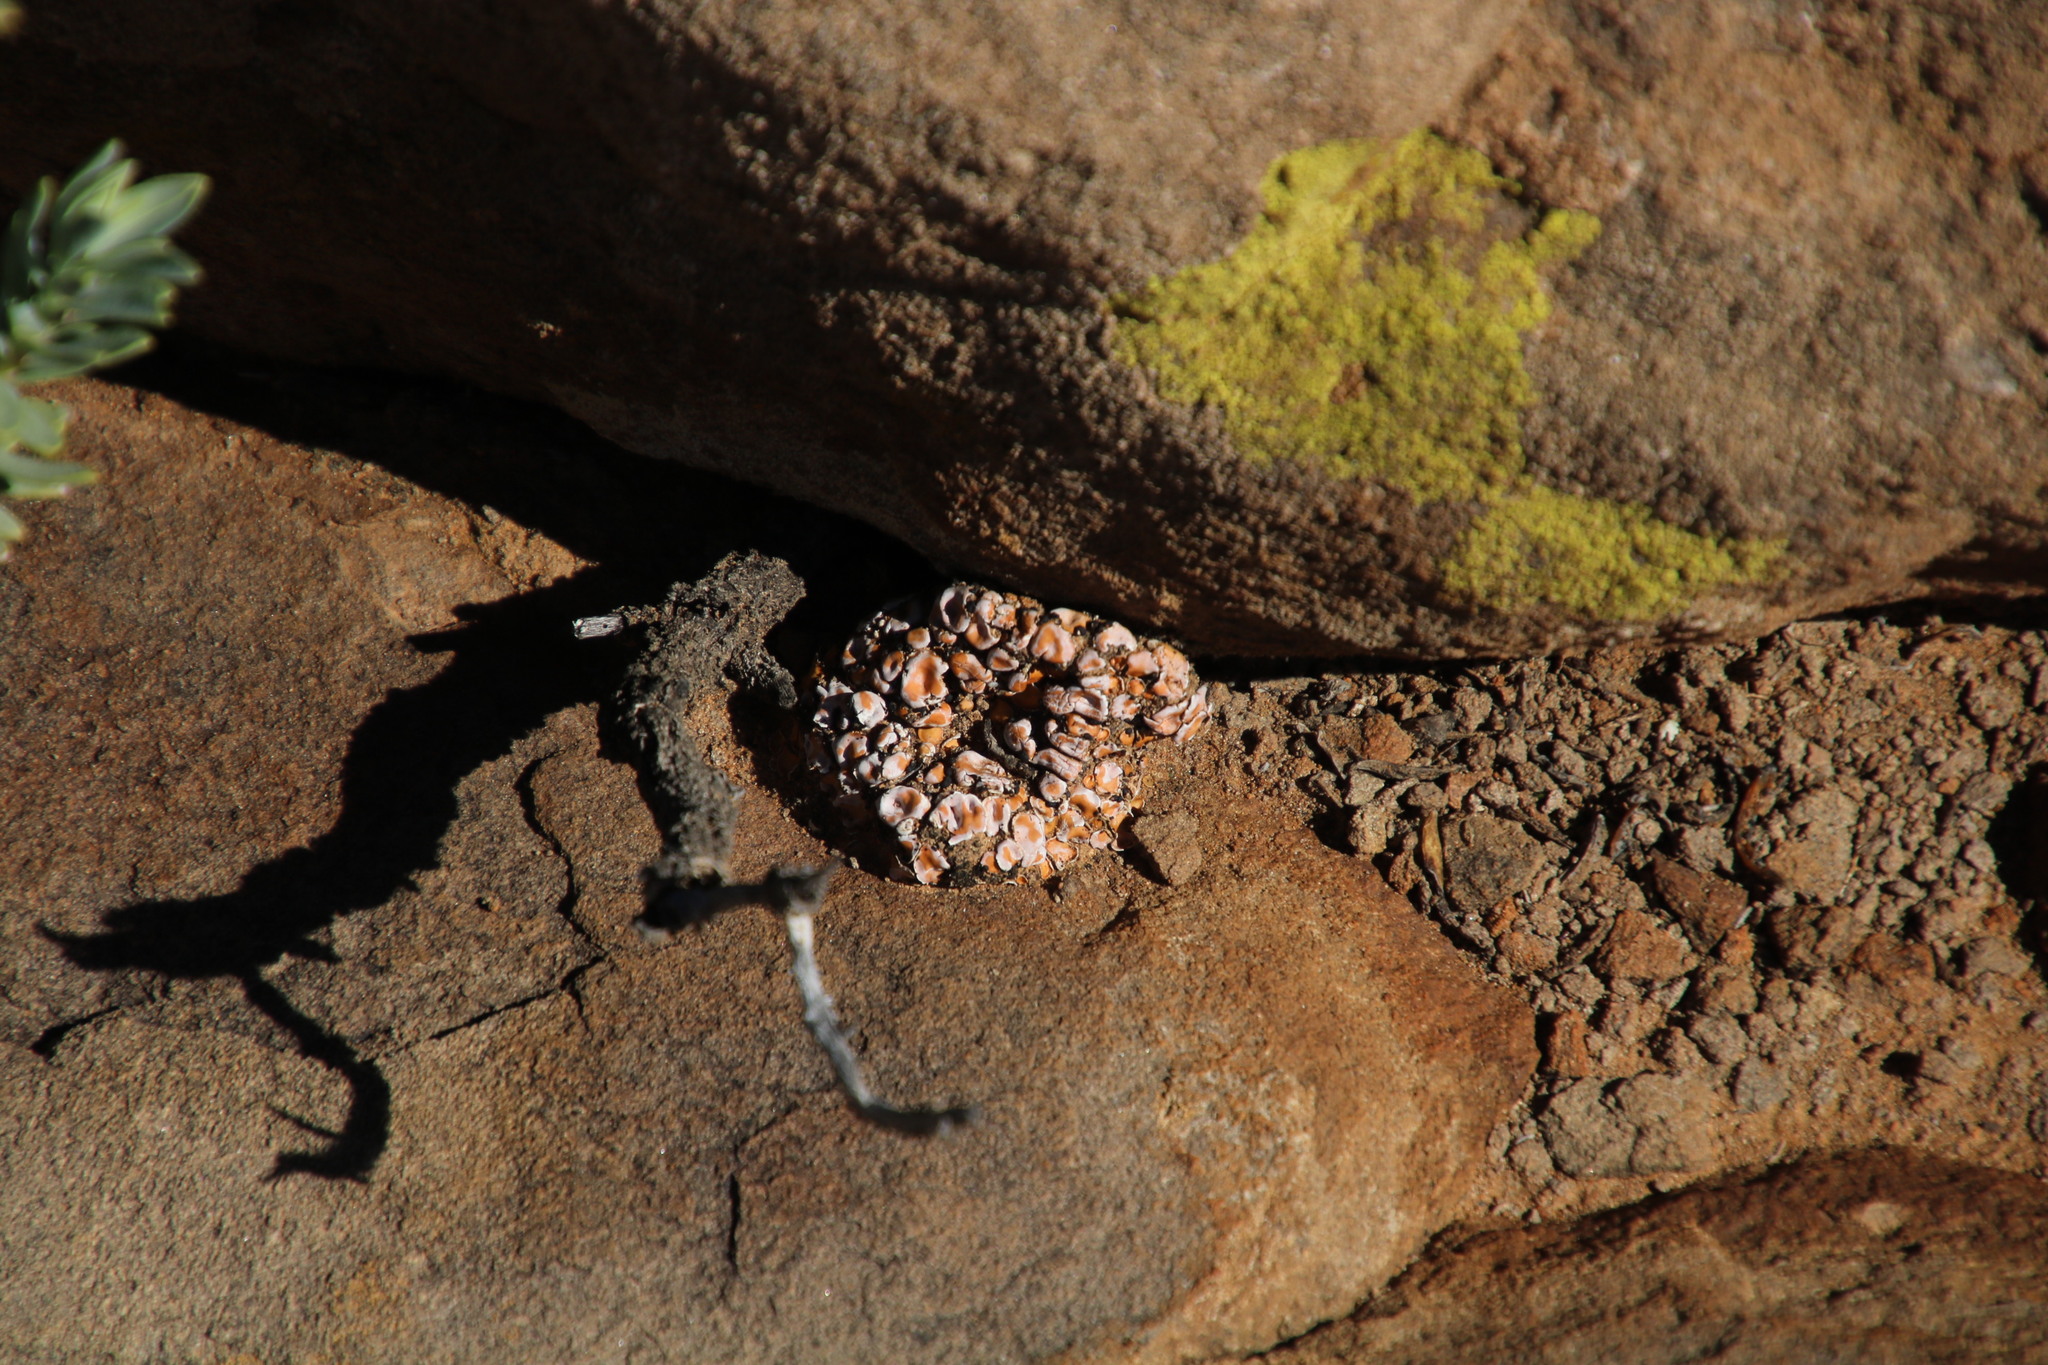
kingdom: Fungi
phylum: Ascomycota
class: Lecanoromycetes
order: Lecanorales
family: Psoraceae
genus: Psora
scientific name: Psora crenata
